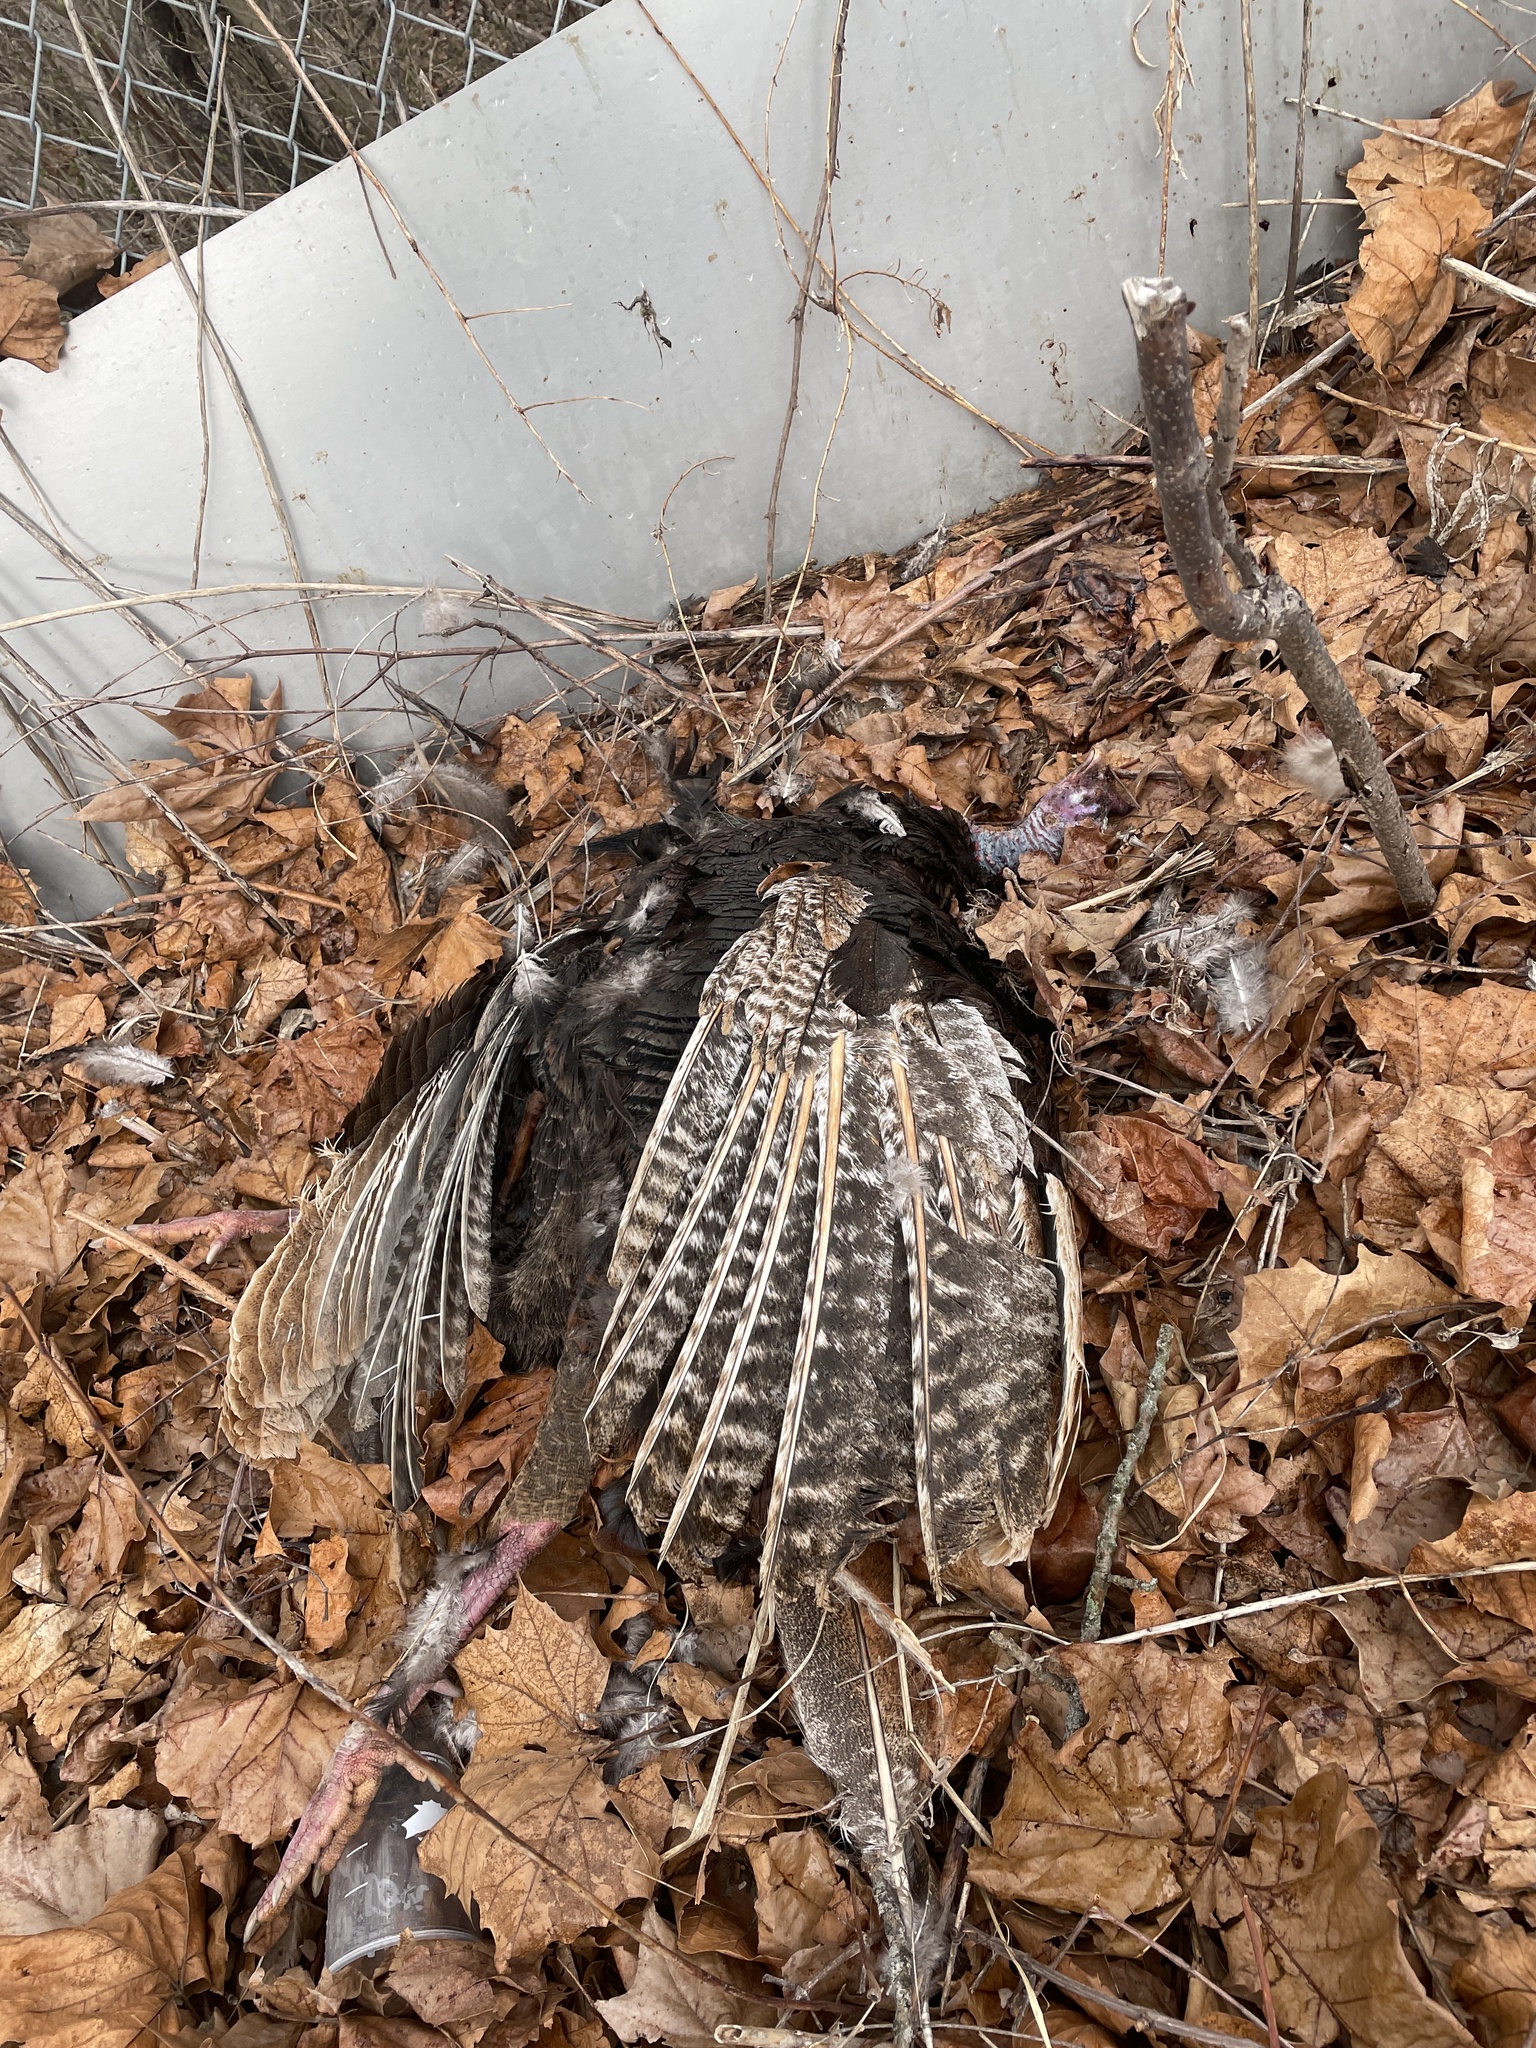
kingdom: Animalia
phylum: Chordata
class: Aves
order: Galliformes
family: Phasianidae
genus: Meleagris
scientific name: Meleagris gallopavo
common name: Wild turkey
